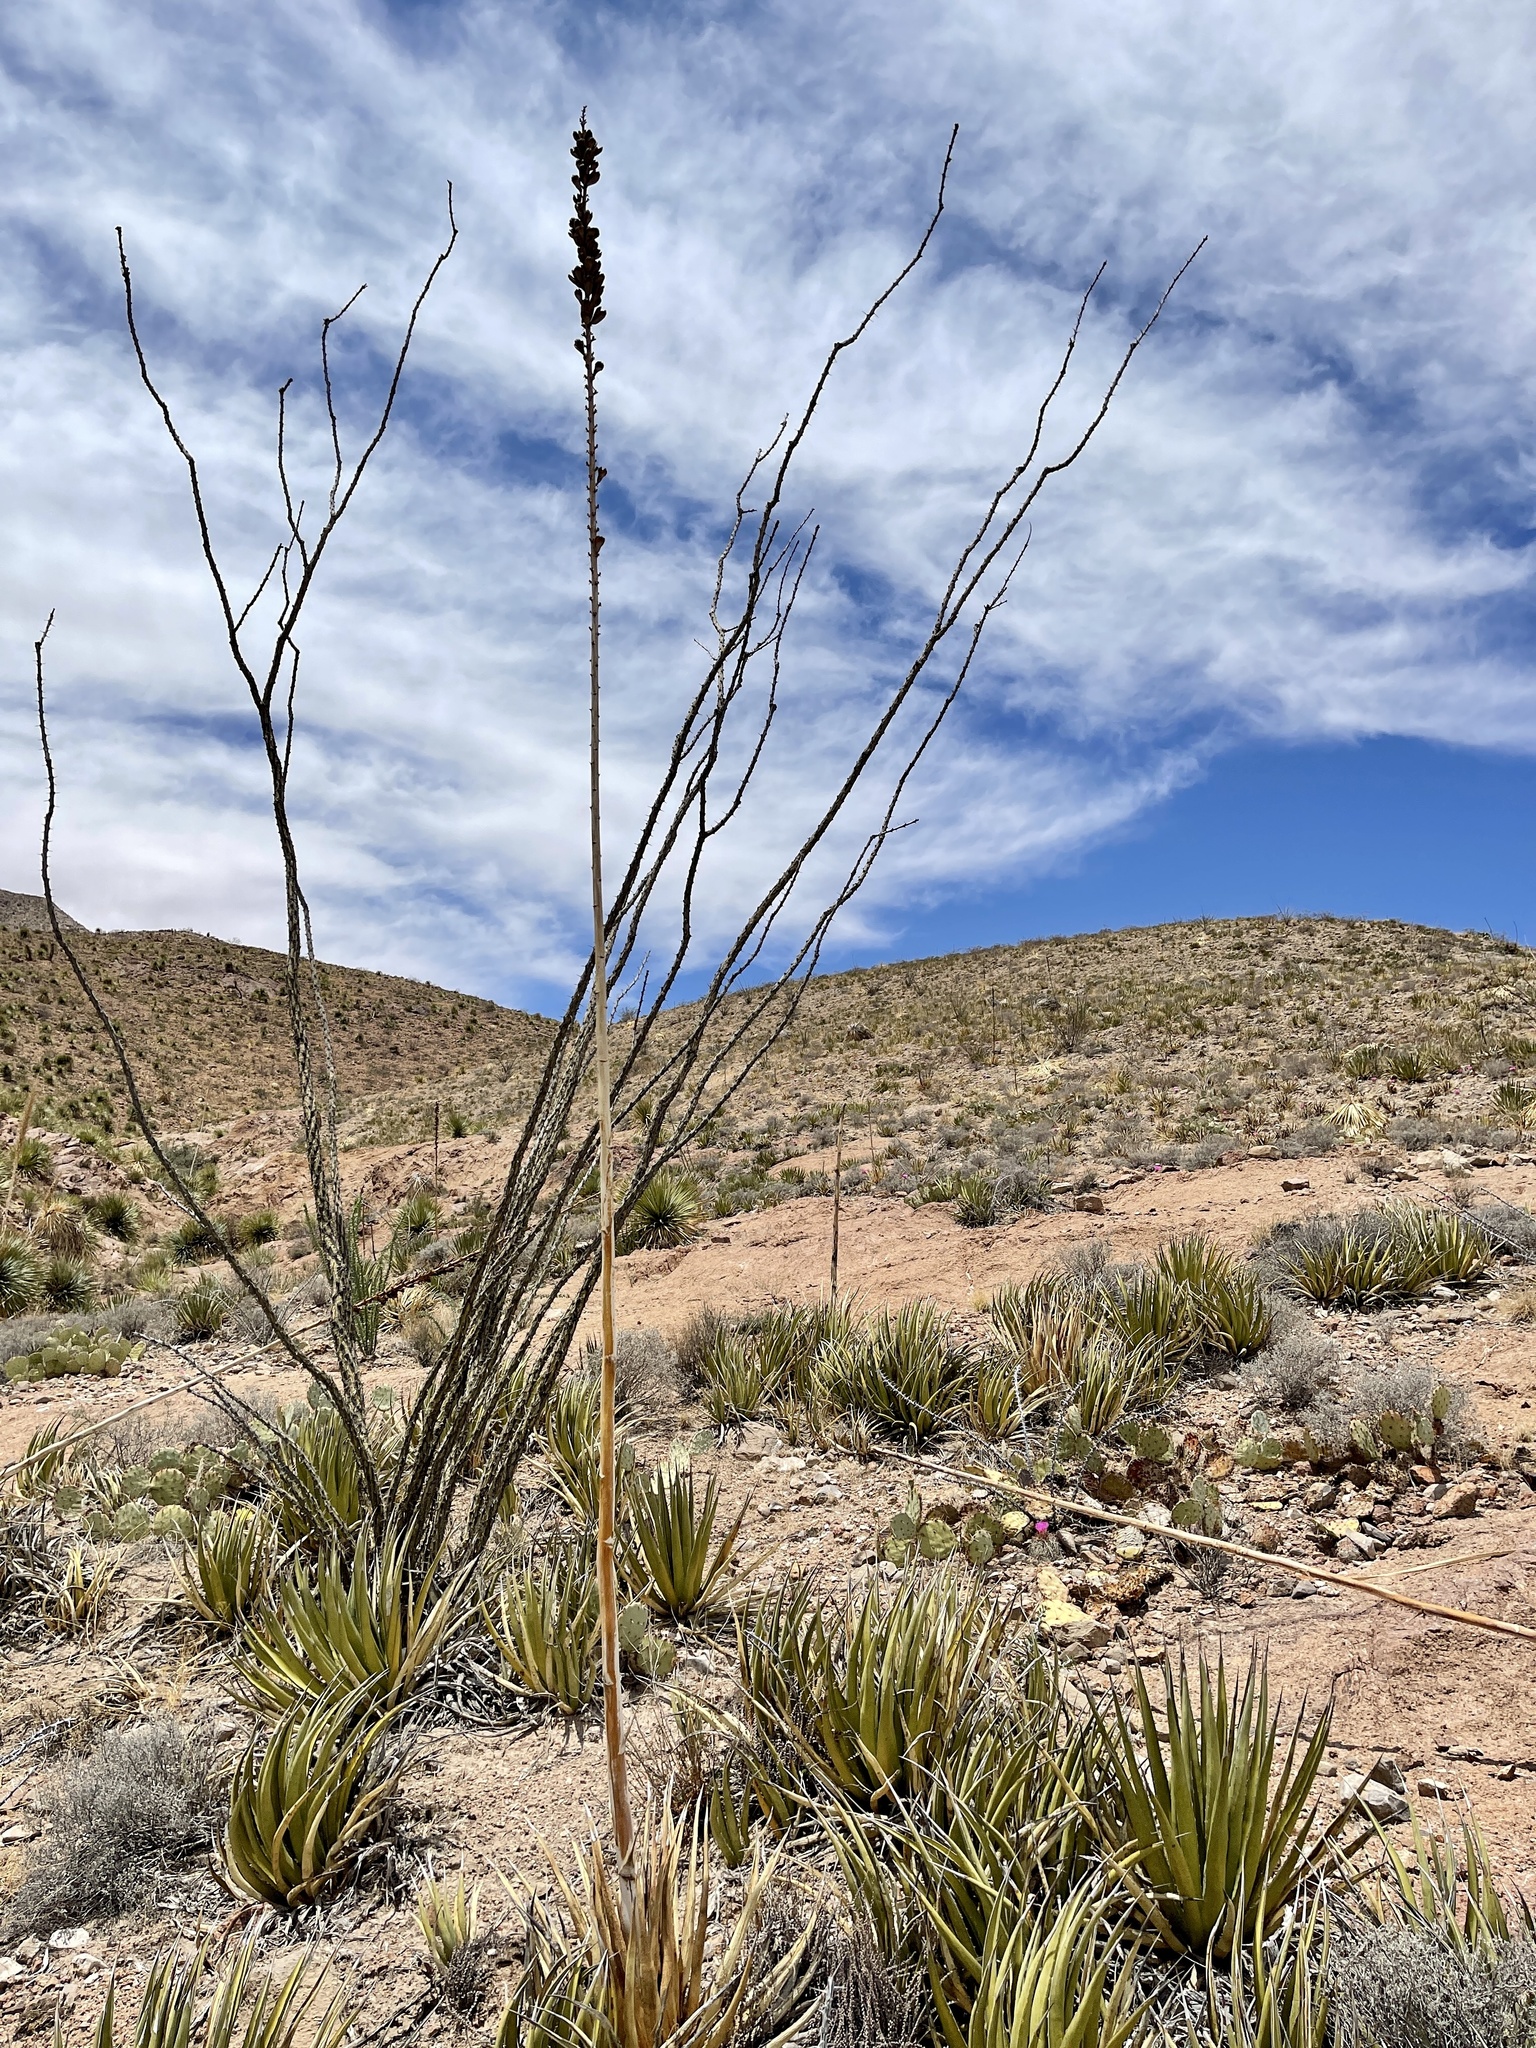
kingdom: Plantae
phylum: Tracheophyta
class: Liliopsida
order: Asparagales
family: Asparagaceae
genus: Agave
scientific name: Agave lechuguilla
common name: Lecheguilla agave
